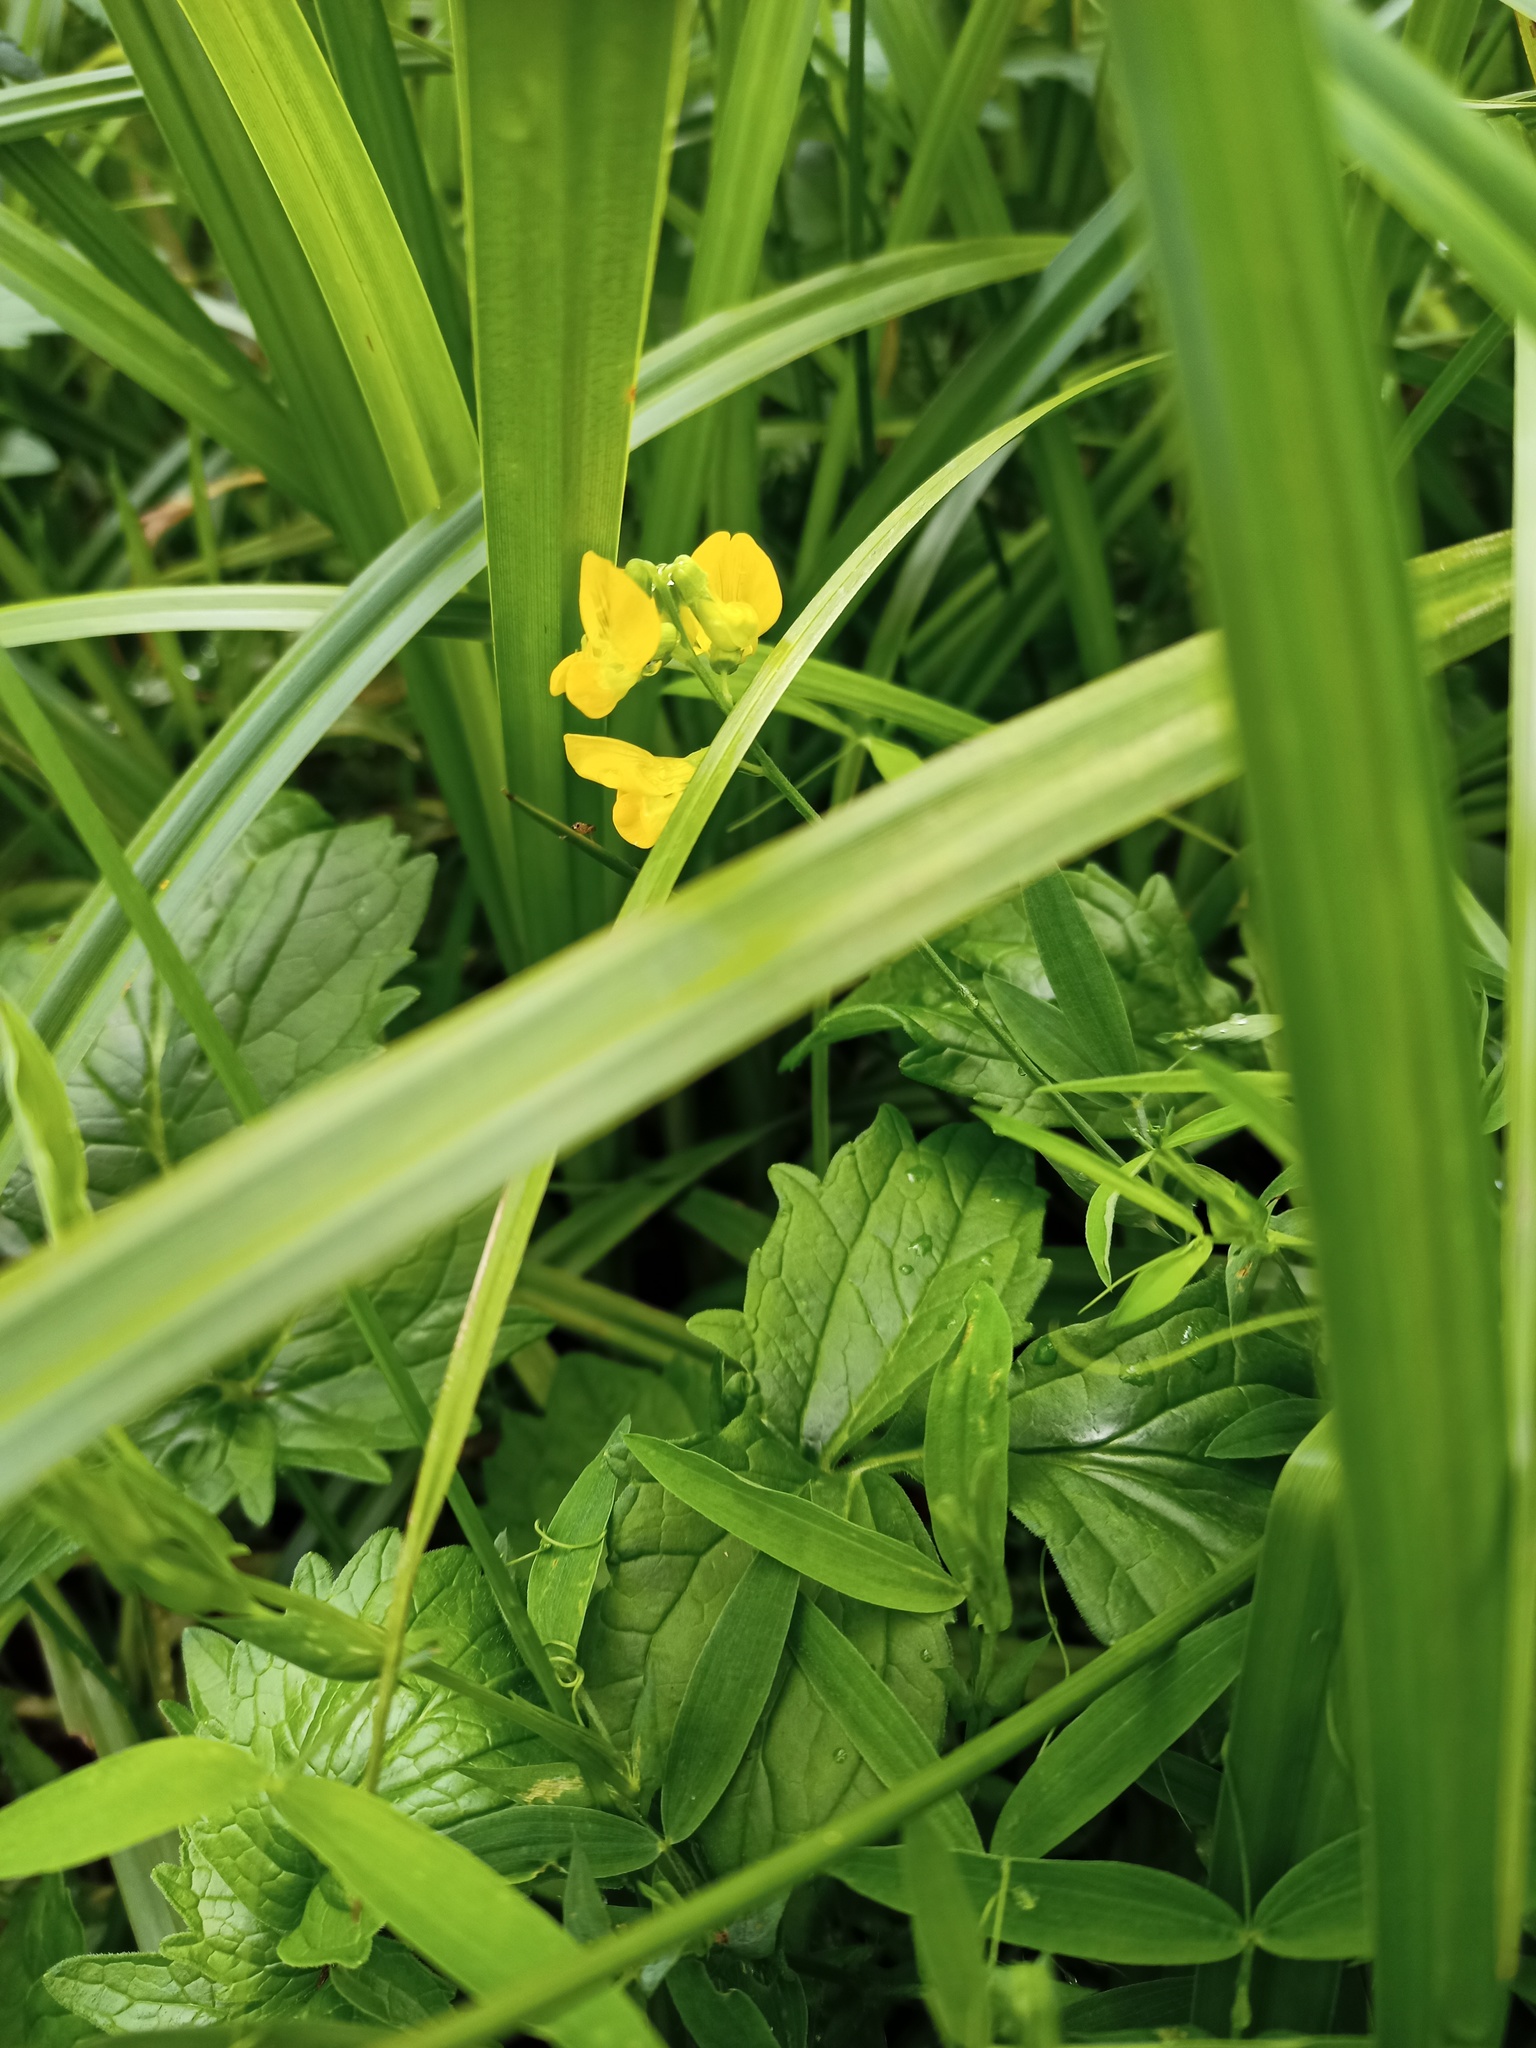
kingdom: Plantae
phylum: Tracheophyta
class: Magnoliopsida
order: Fabales
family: Fabaceae
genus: Lathyrus
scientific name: Lathyrus pratensis
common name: Meadow vetchling
